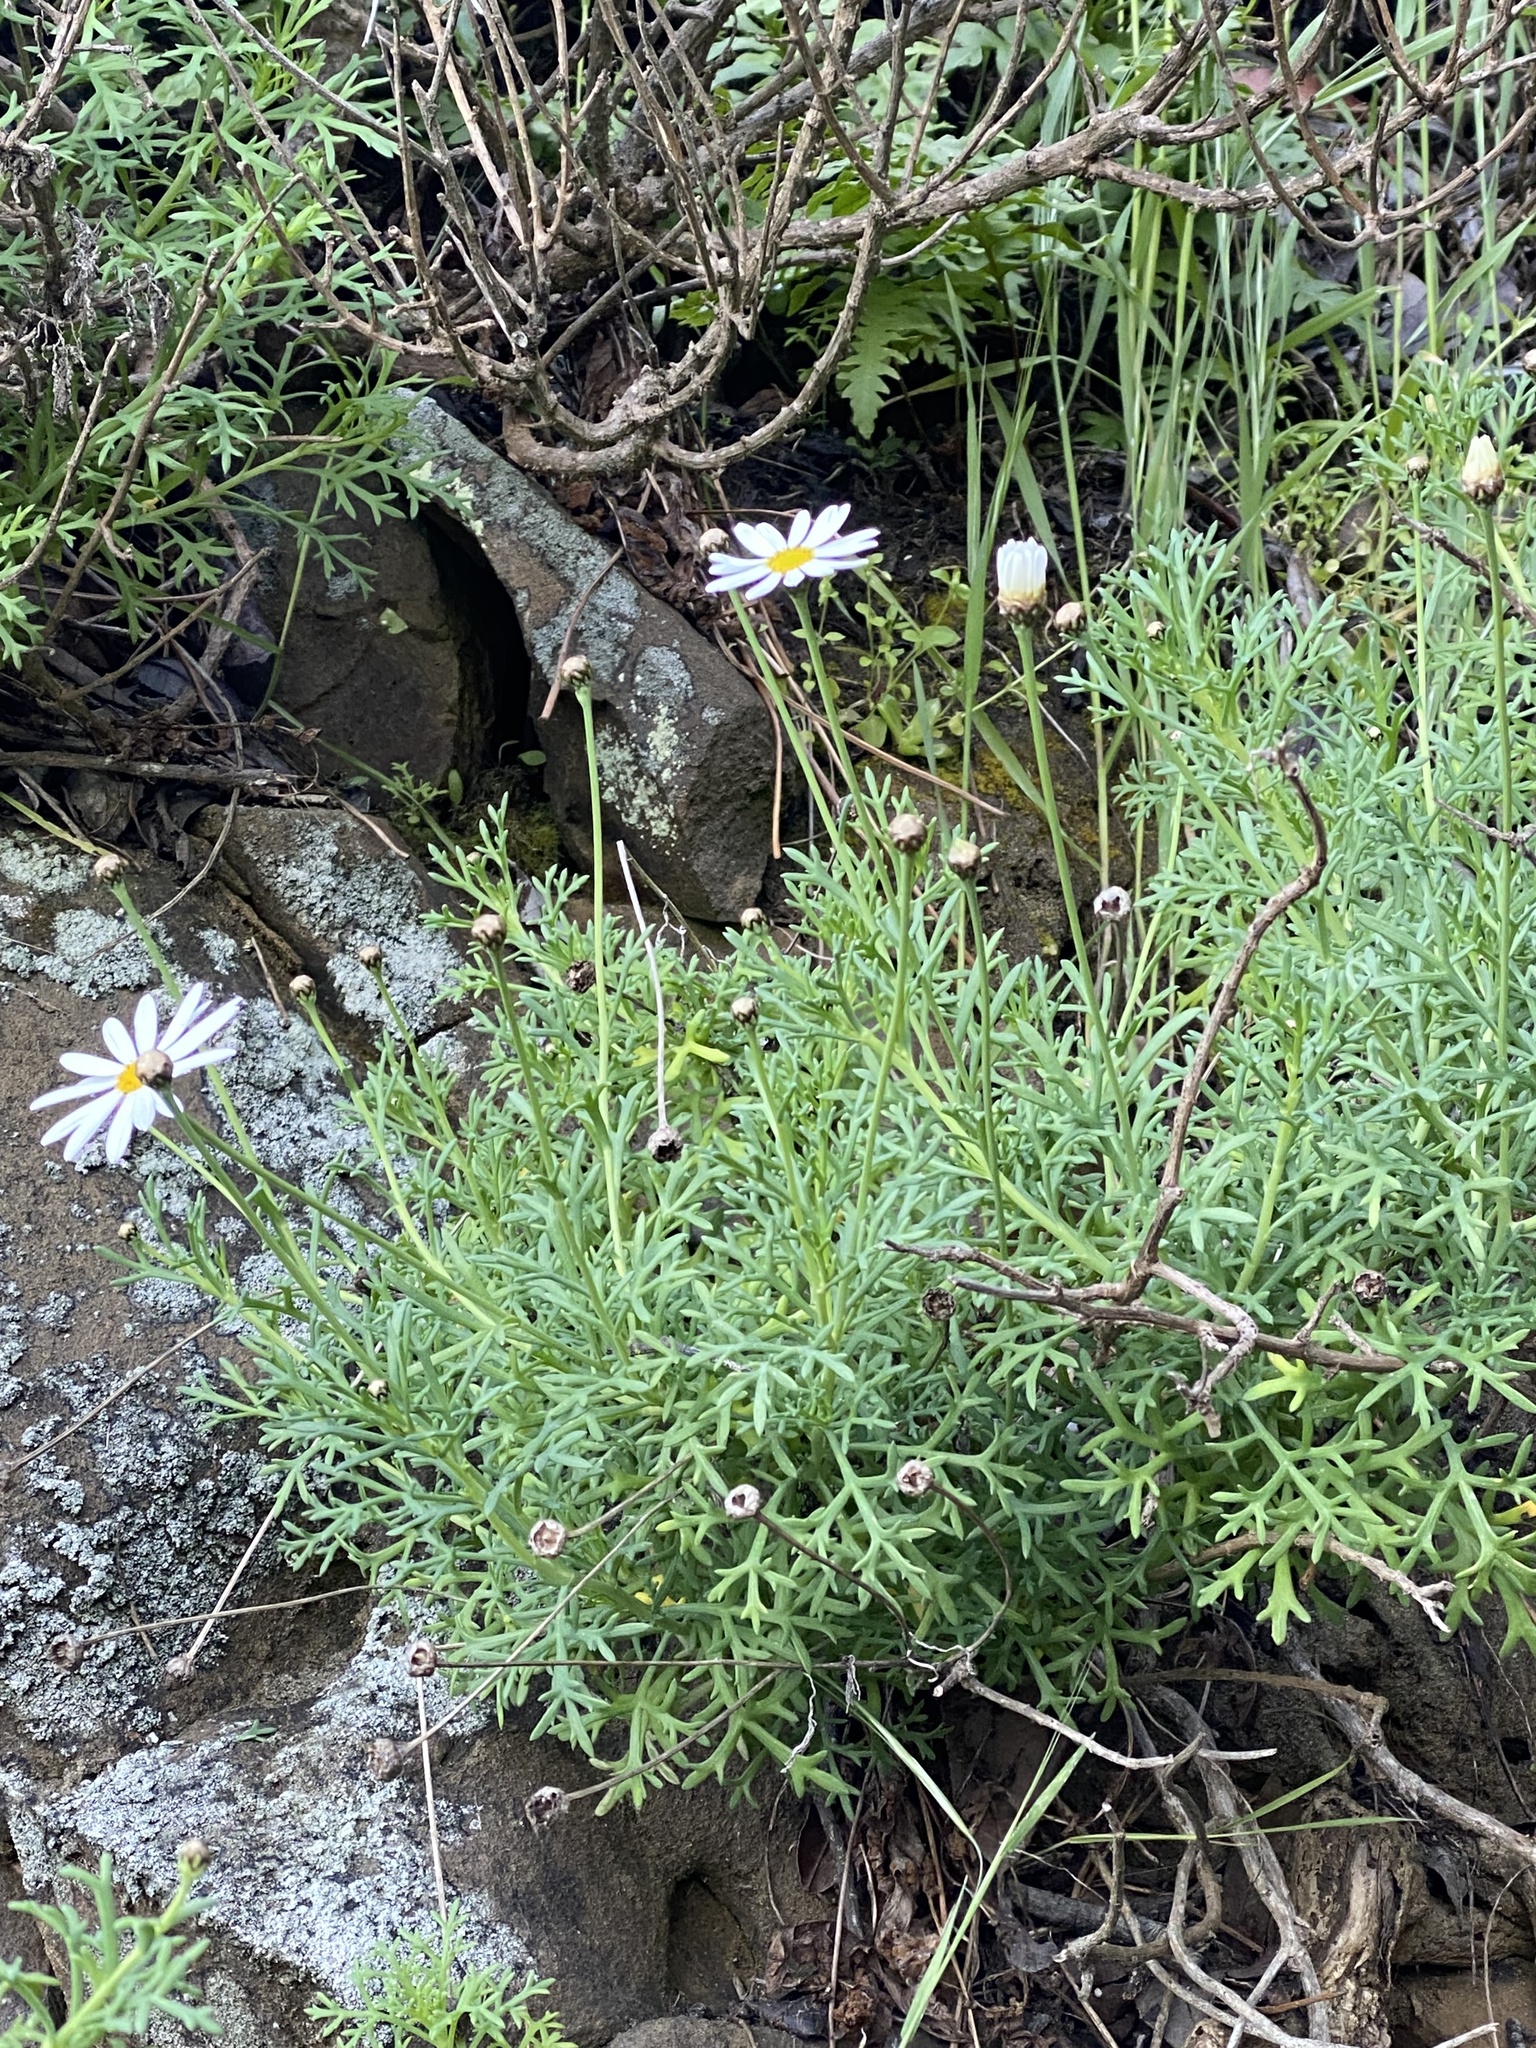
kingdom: Plantae
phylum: Tracheophyta
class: Magnoliopsida
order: Asterales
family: Asteraceae
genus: Argyranthemum
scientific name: Argyranthemum foeniculaceum
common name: Canary island marguerite
